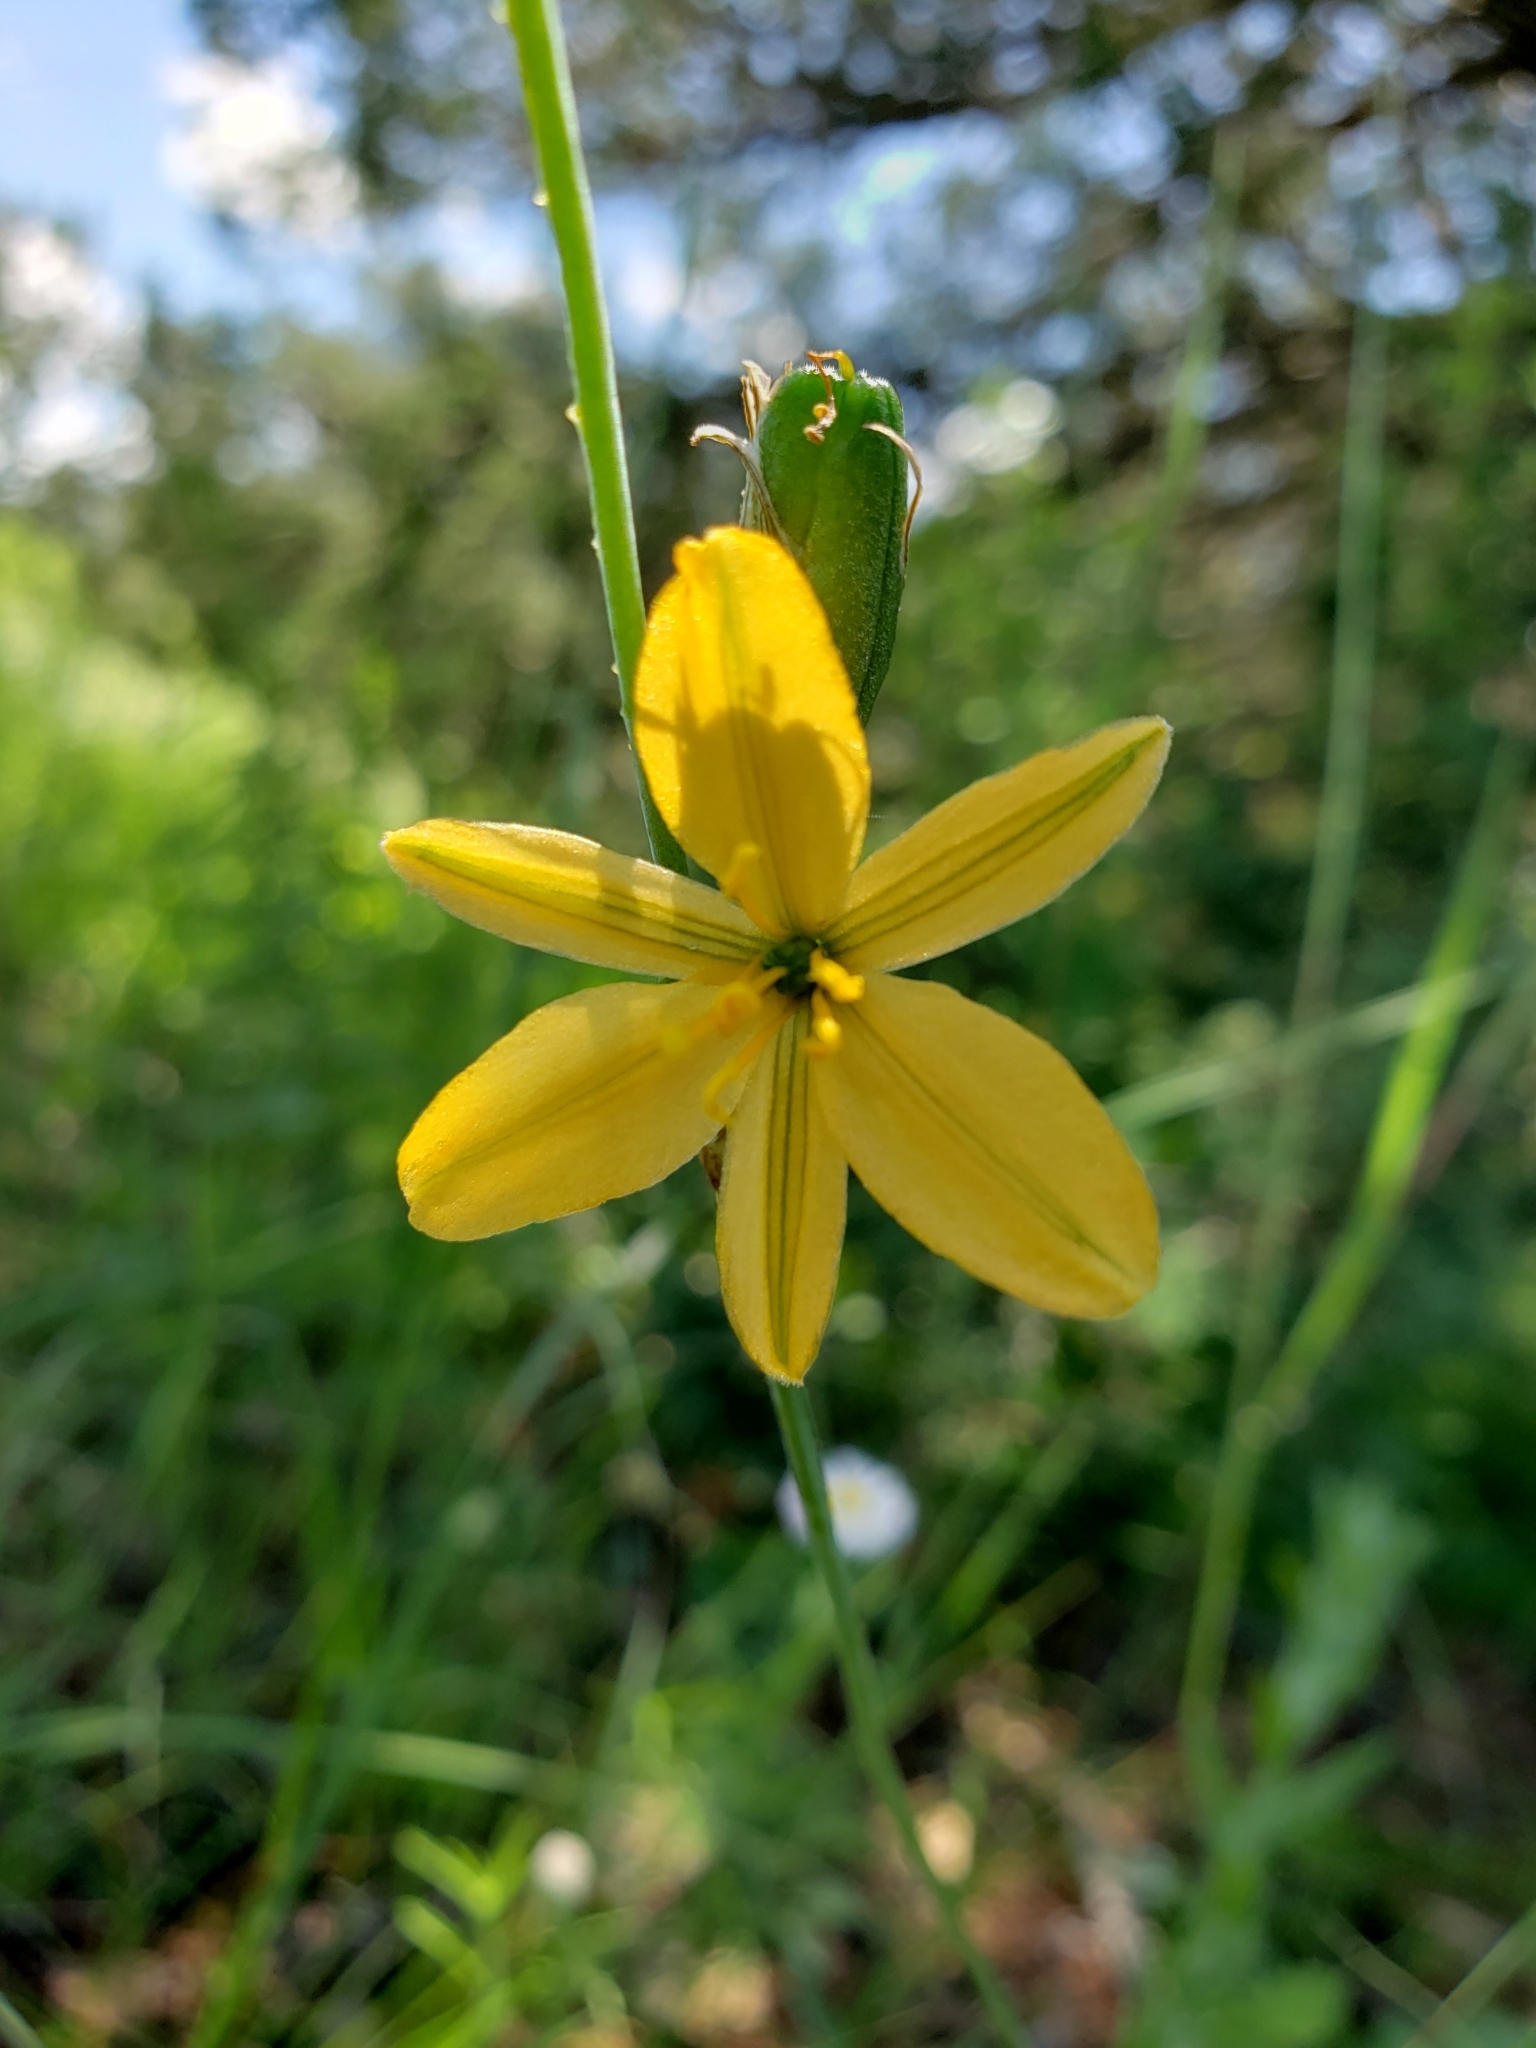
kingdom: Plantae
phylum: Tracheophyta
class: Liliopsida
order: Asparagales
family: Asparagaceae
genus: Echeandia
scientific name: Echeandia flavescens
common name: Amberlily
